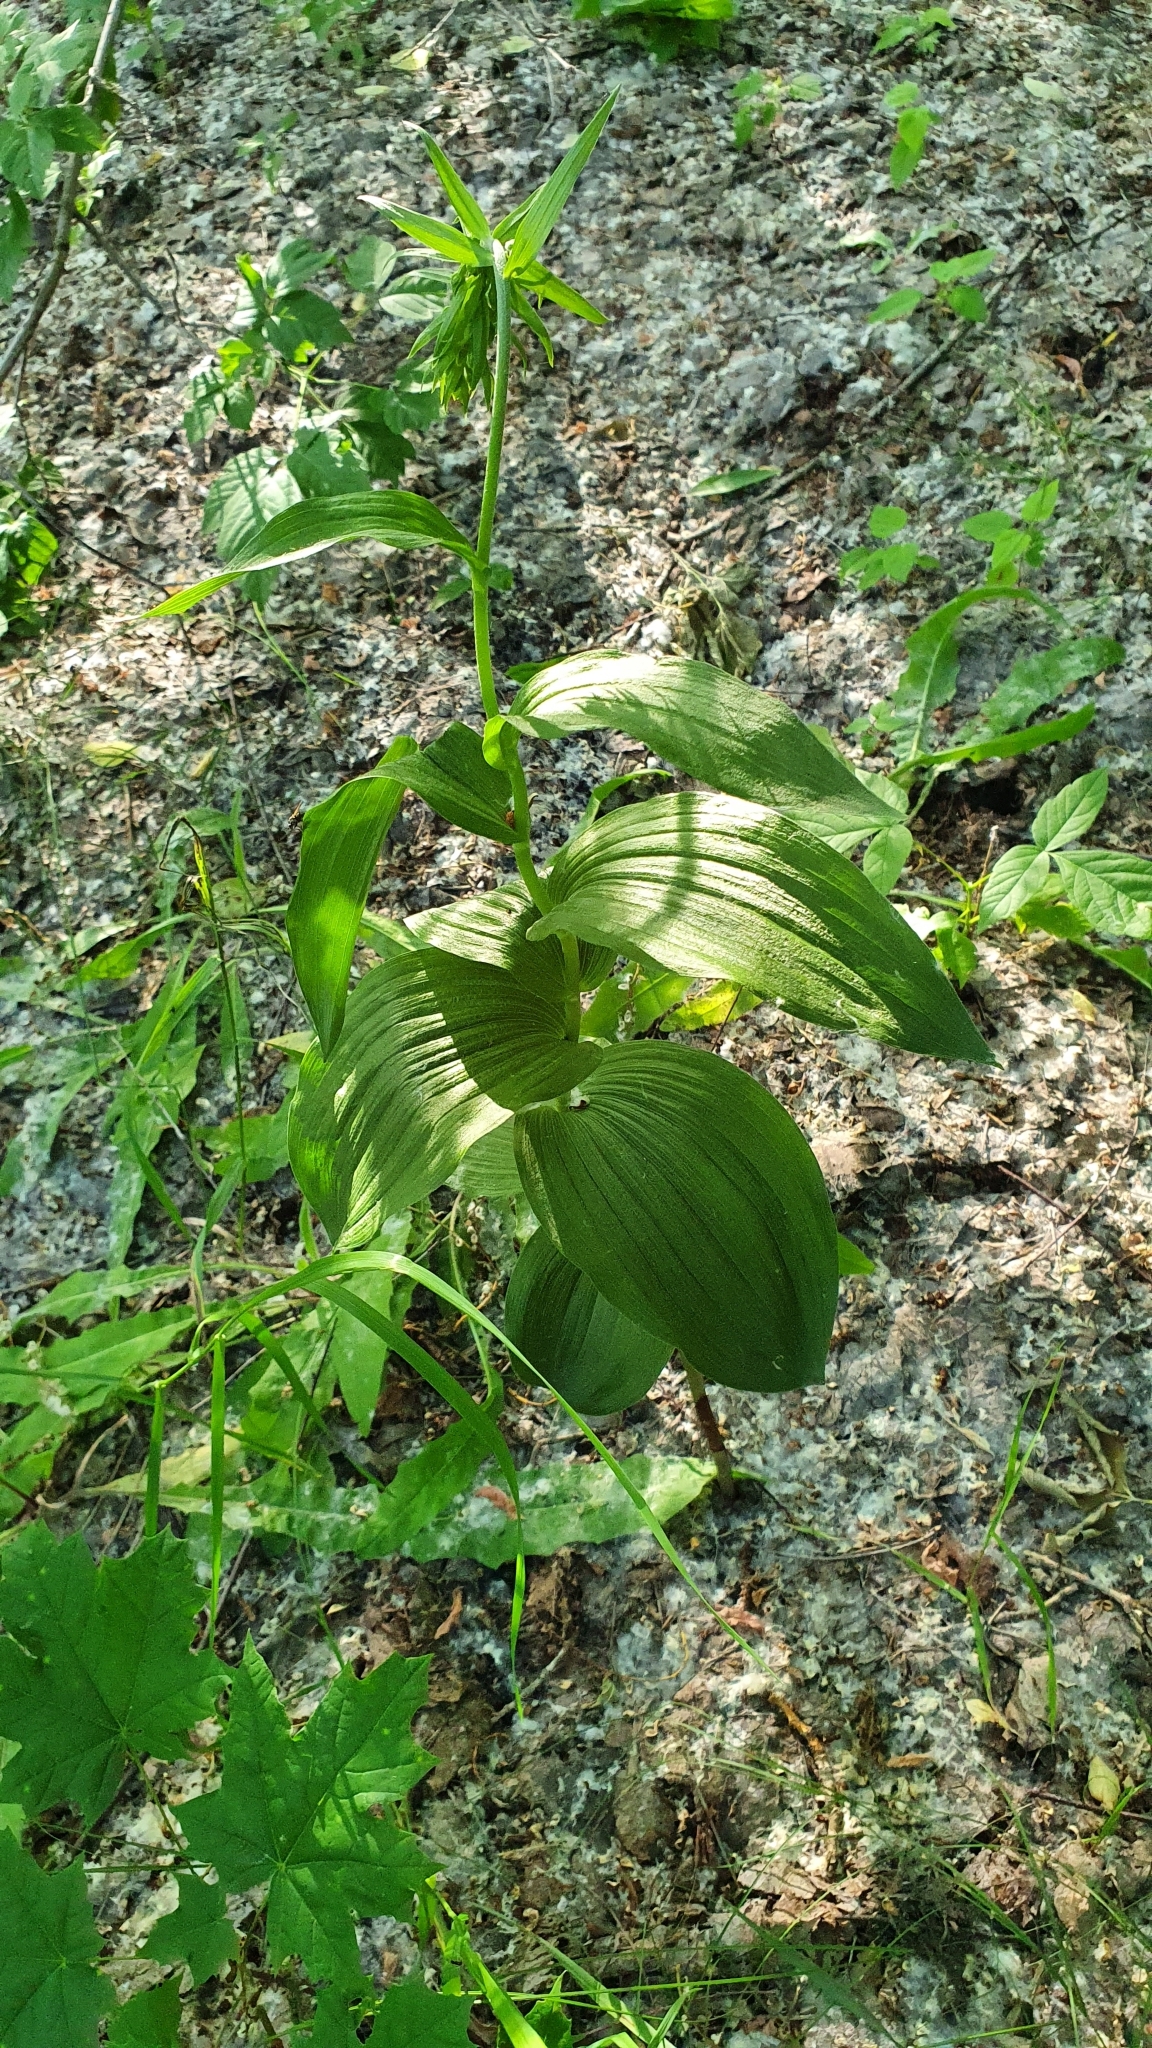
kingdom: Plantae
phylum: Tracheophyta
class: Liliopsida
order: Asparagales
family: Orchidaceae
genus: Epipactis
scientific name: Epipactis helleborine
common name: Broad-leaved helleborine
